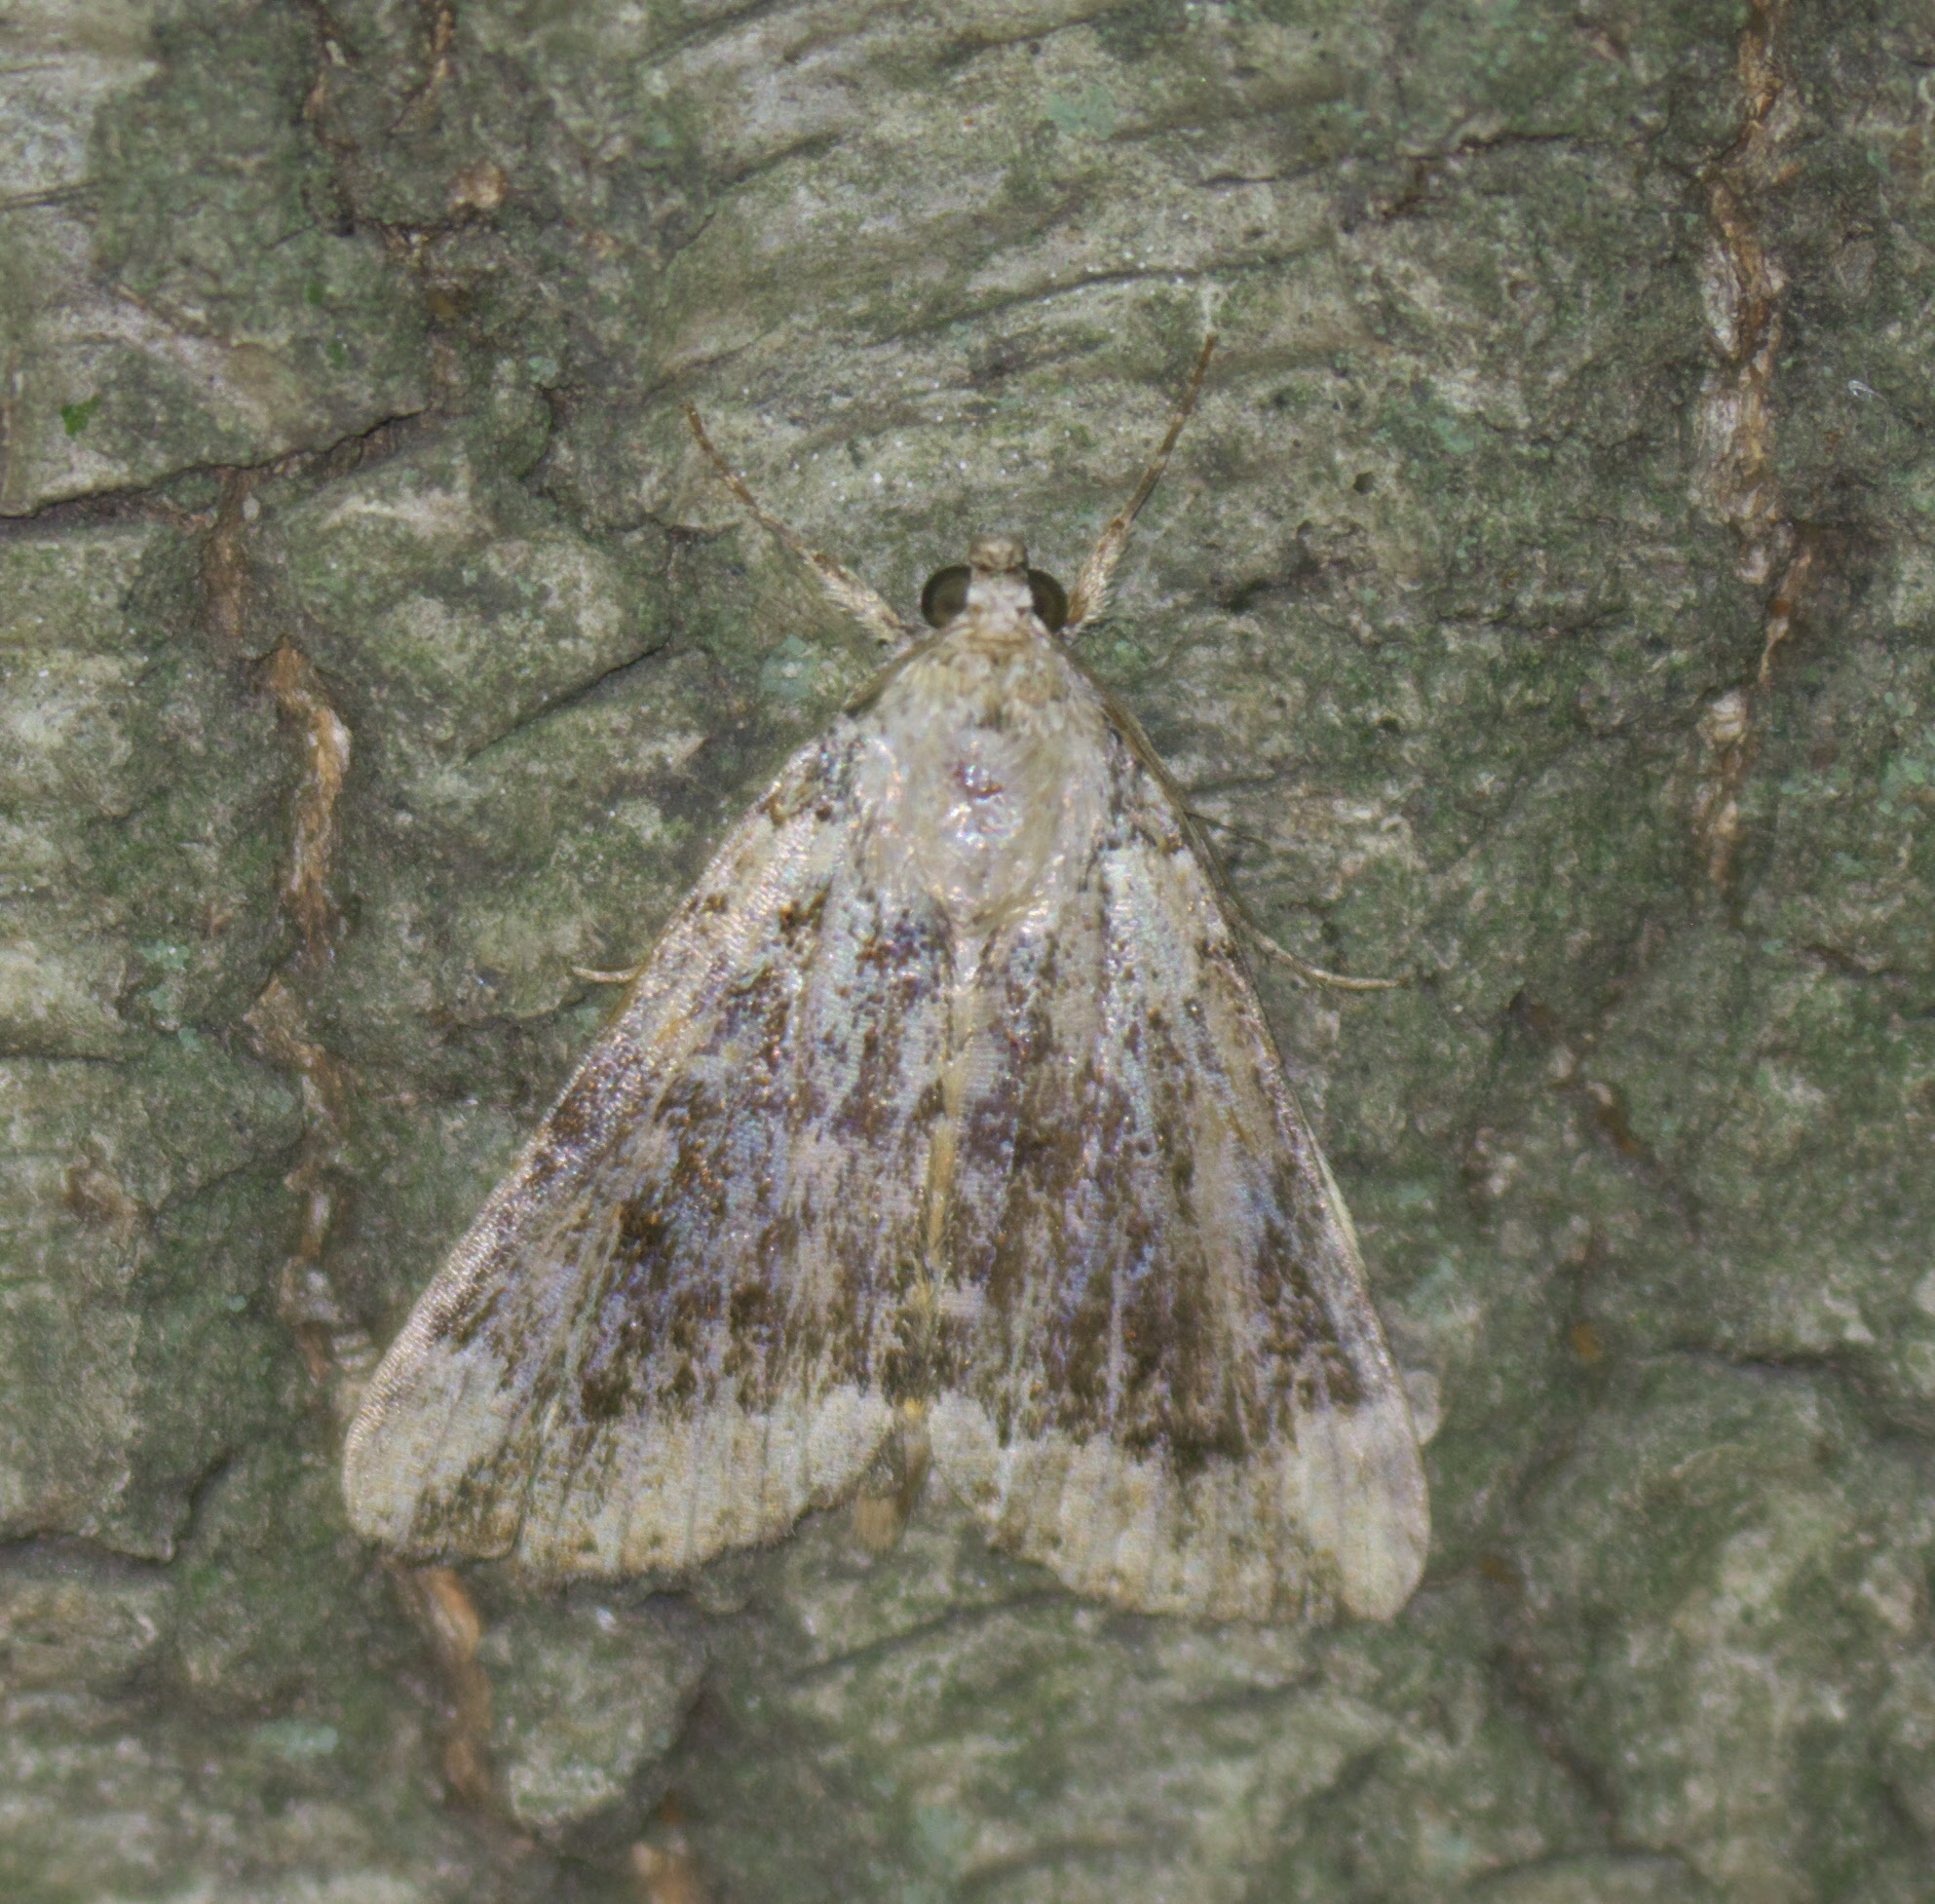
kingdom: Animalia
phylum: Arthropoda
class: Insecta
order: Lepidoptera
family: Erebidae
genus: Catocala
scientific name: Catocala micronympha
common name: Little nymph underwing
